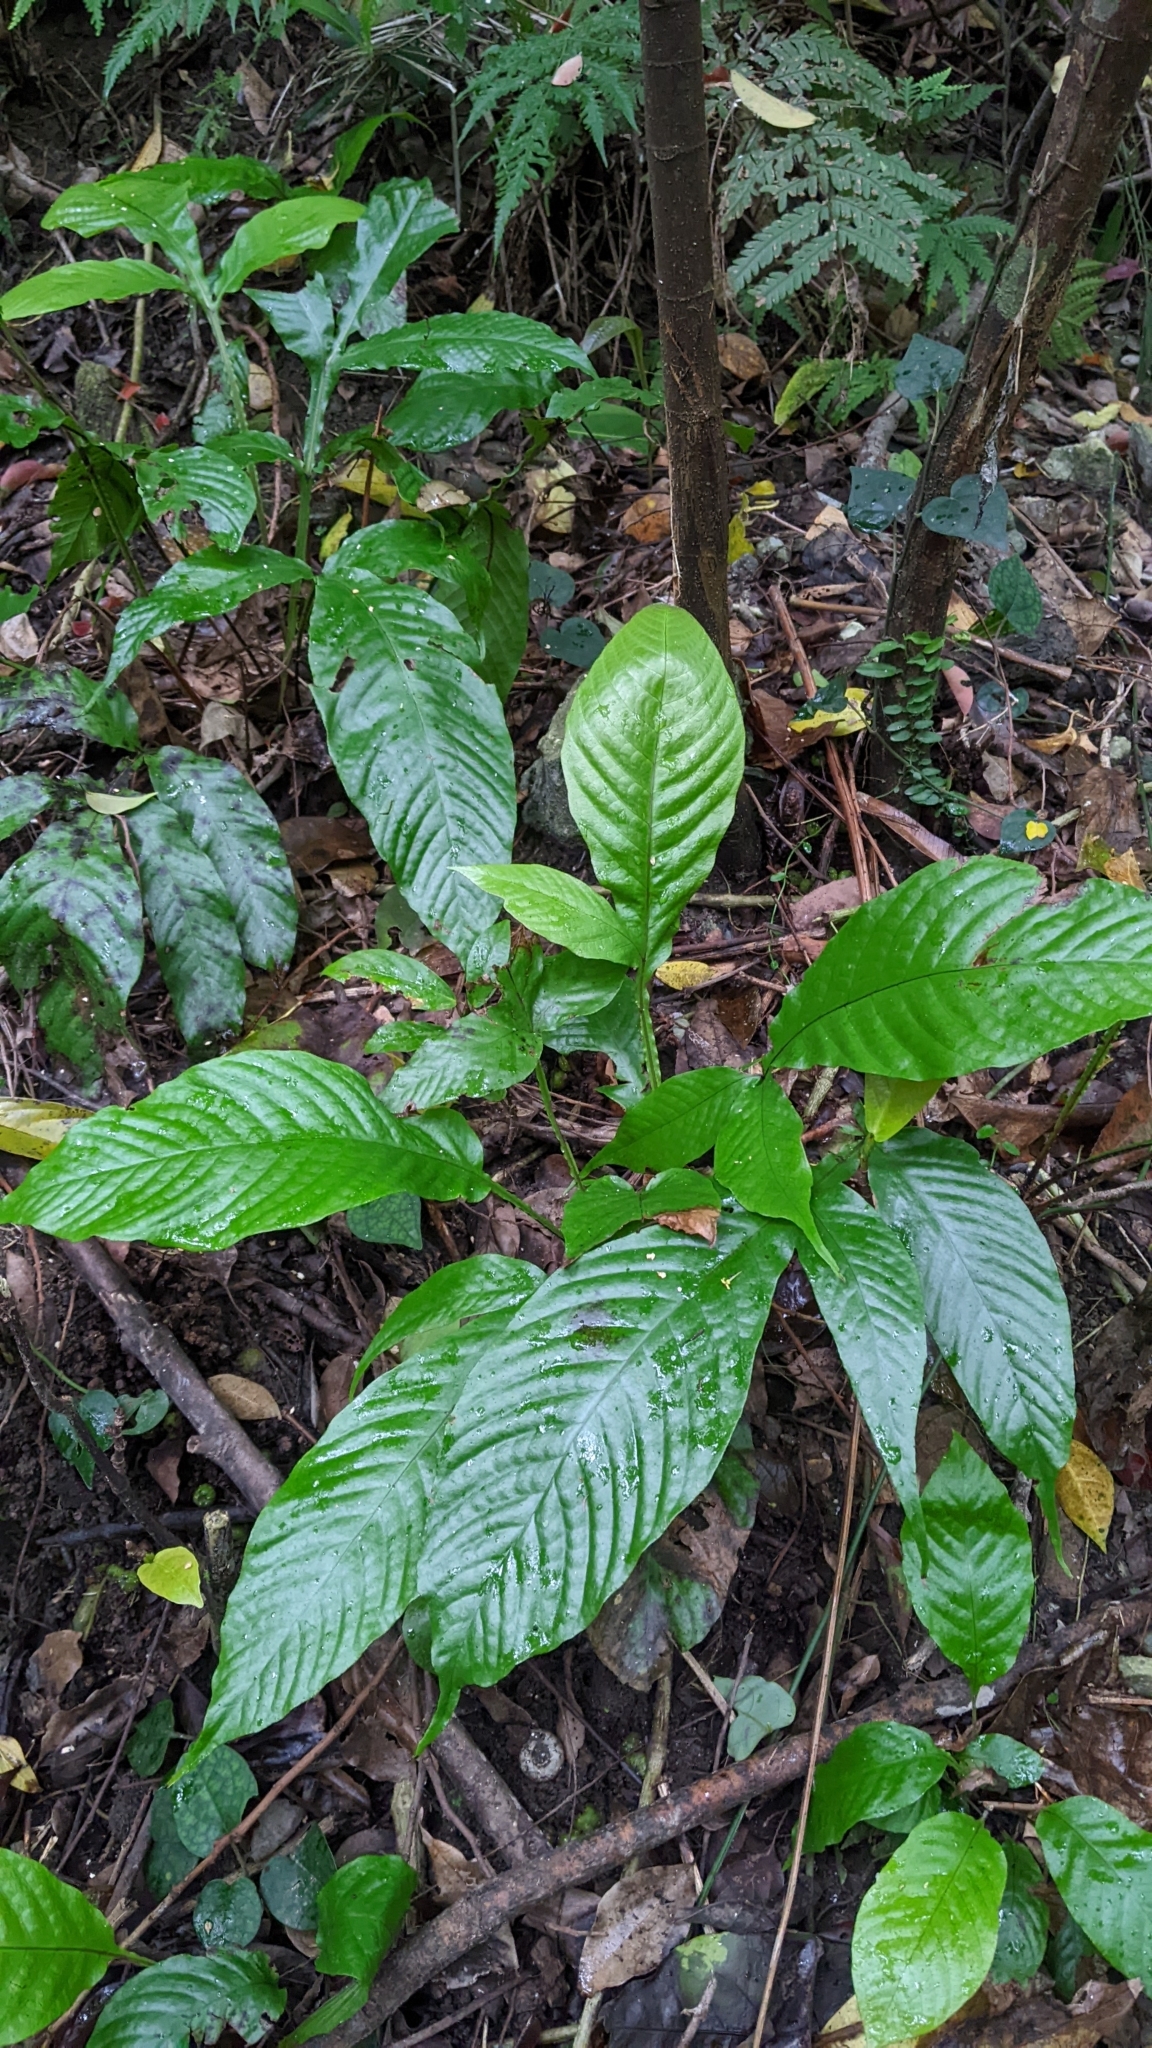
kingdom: Plantae
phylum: Tracheophyta
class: Polypodiopsida
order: Polypodiales
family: Tectariaceae
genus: Tectaria
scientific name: Tectaria fauriei
